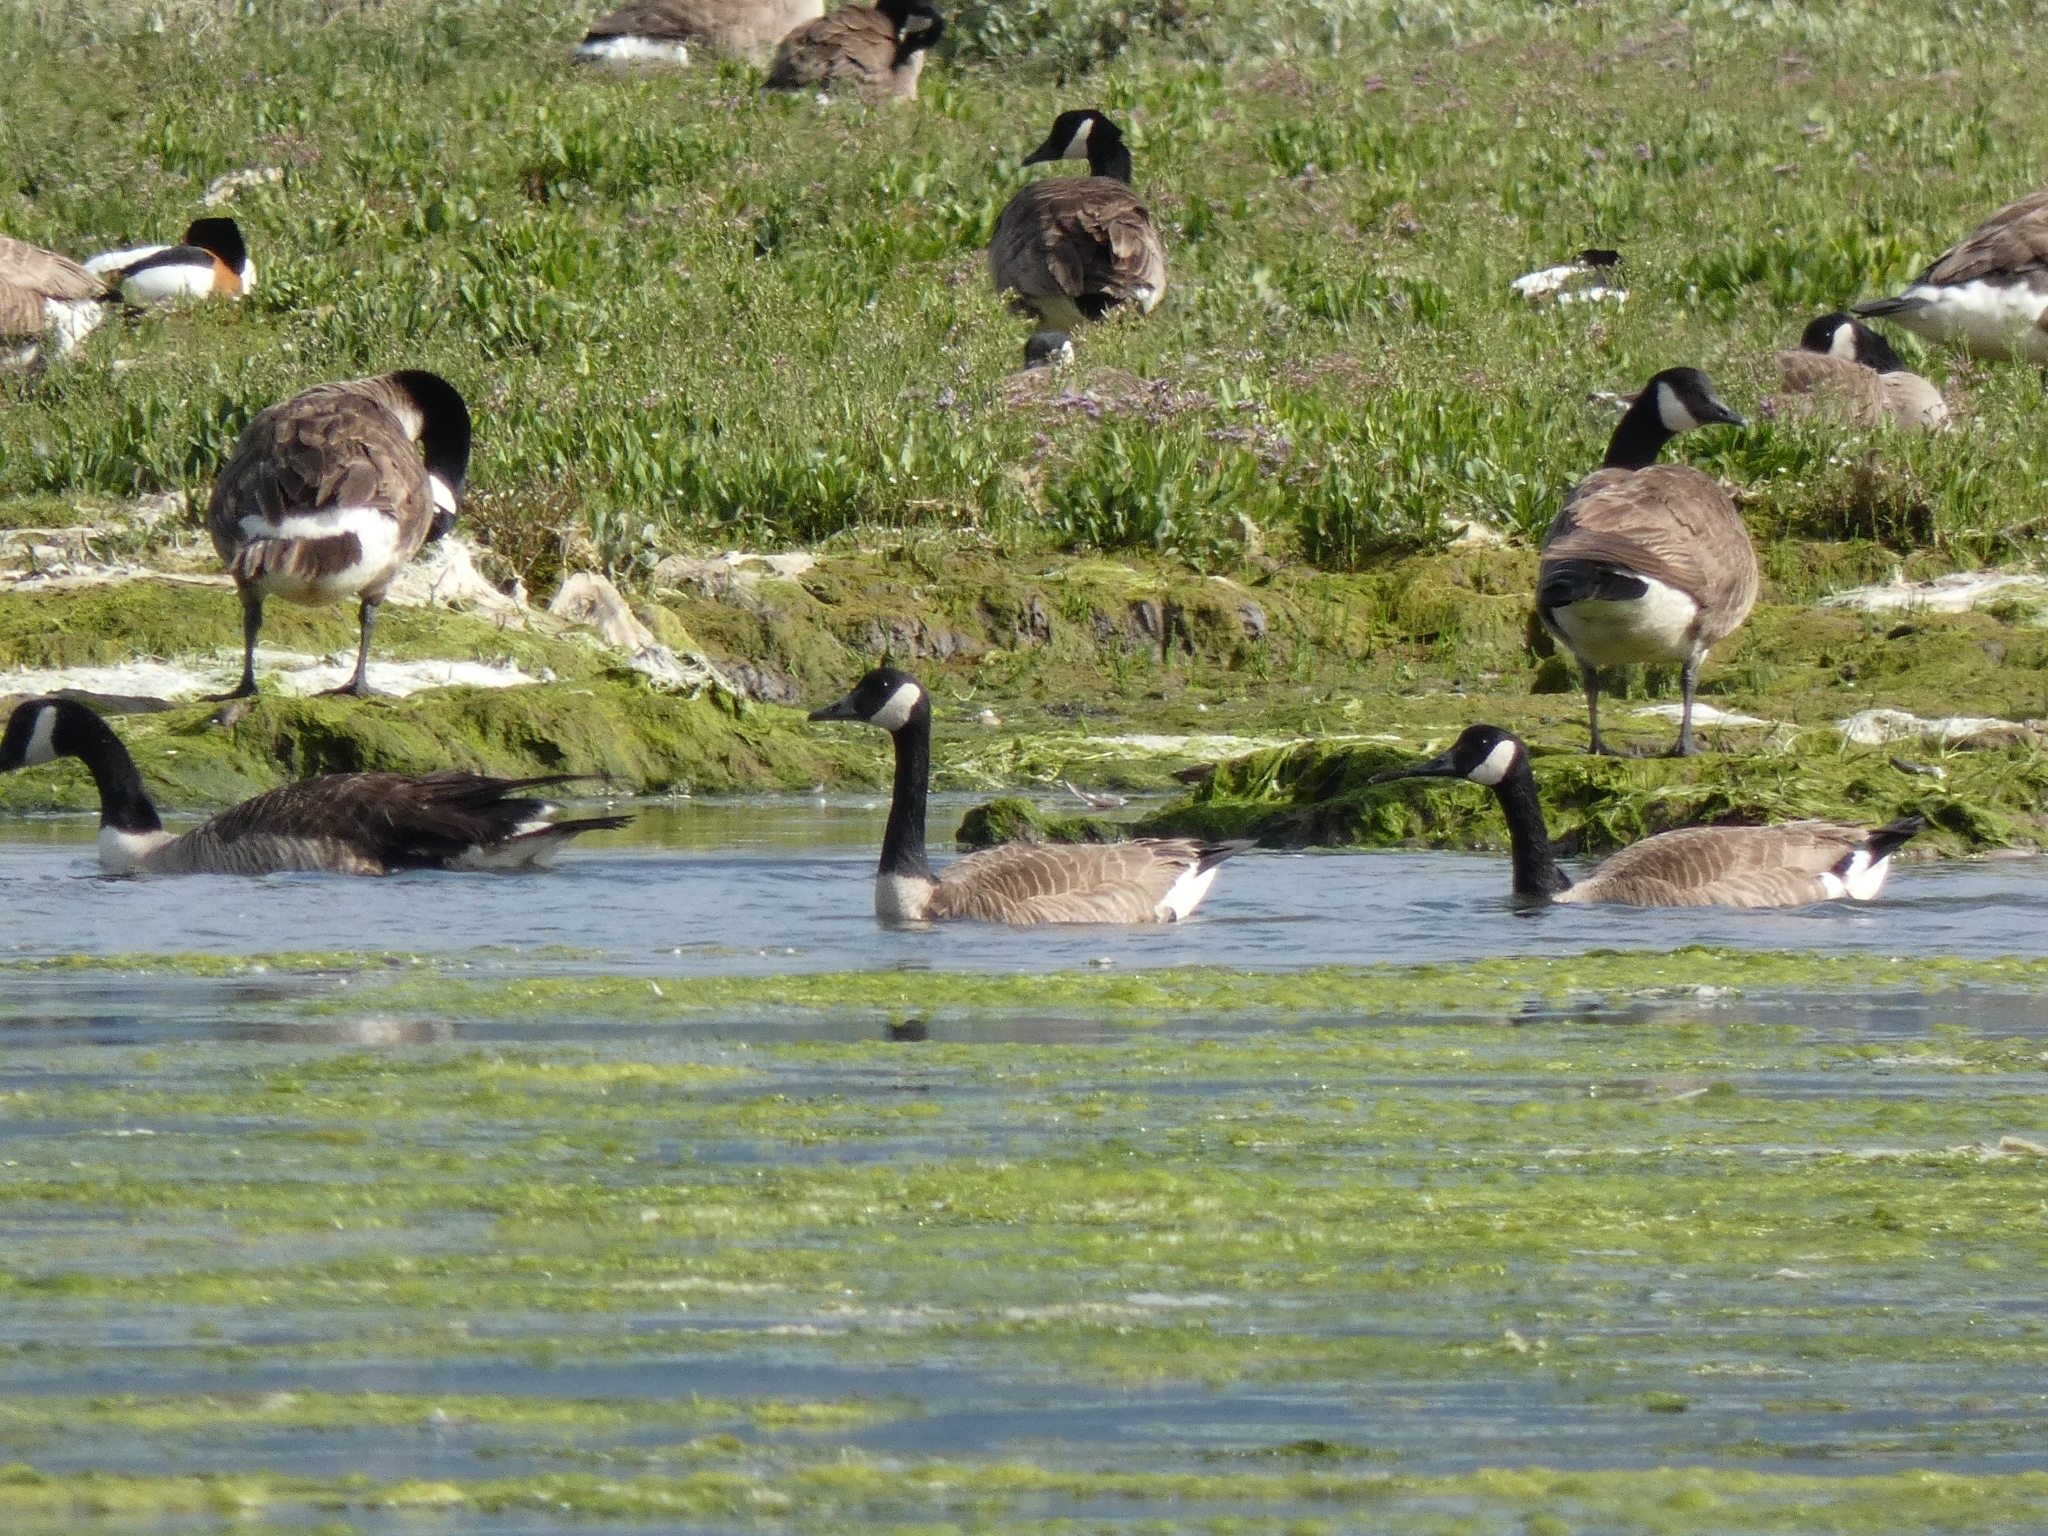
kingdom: Animalia
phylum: Chordata
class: Aves
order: Anseriformes
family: Anatidae
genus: Branta
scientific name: Branta canadensis
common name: Canada goose
